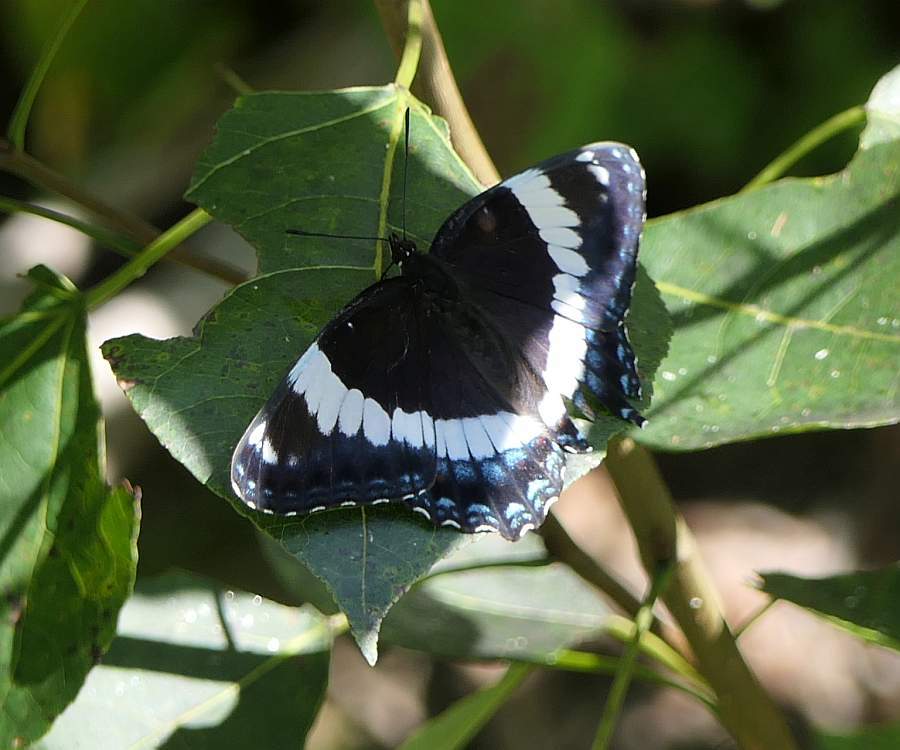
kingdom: Animalia
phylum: Arthropoda
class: Insecta
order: Lepidoptera
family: Nymphalidae
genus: Limenitis
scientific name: Limenitis arthemis
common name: Red-spotted admiral
